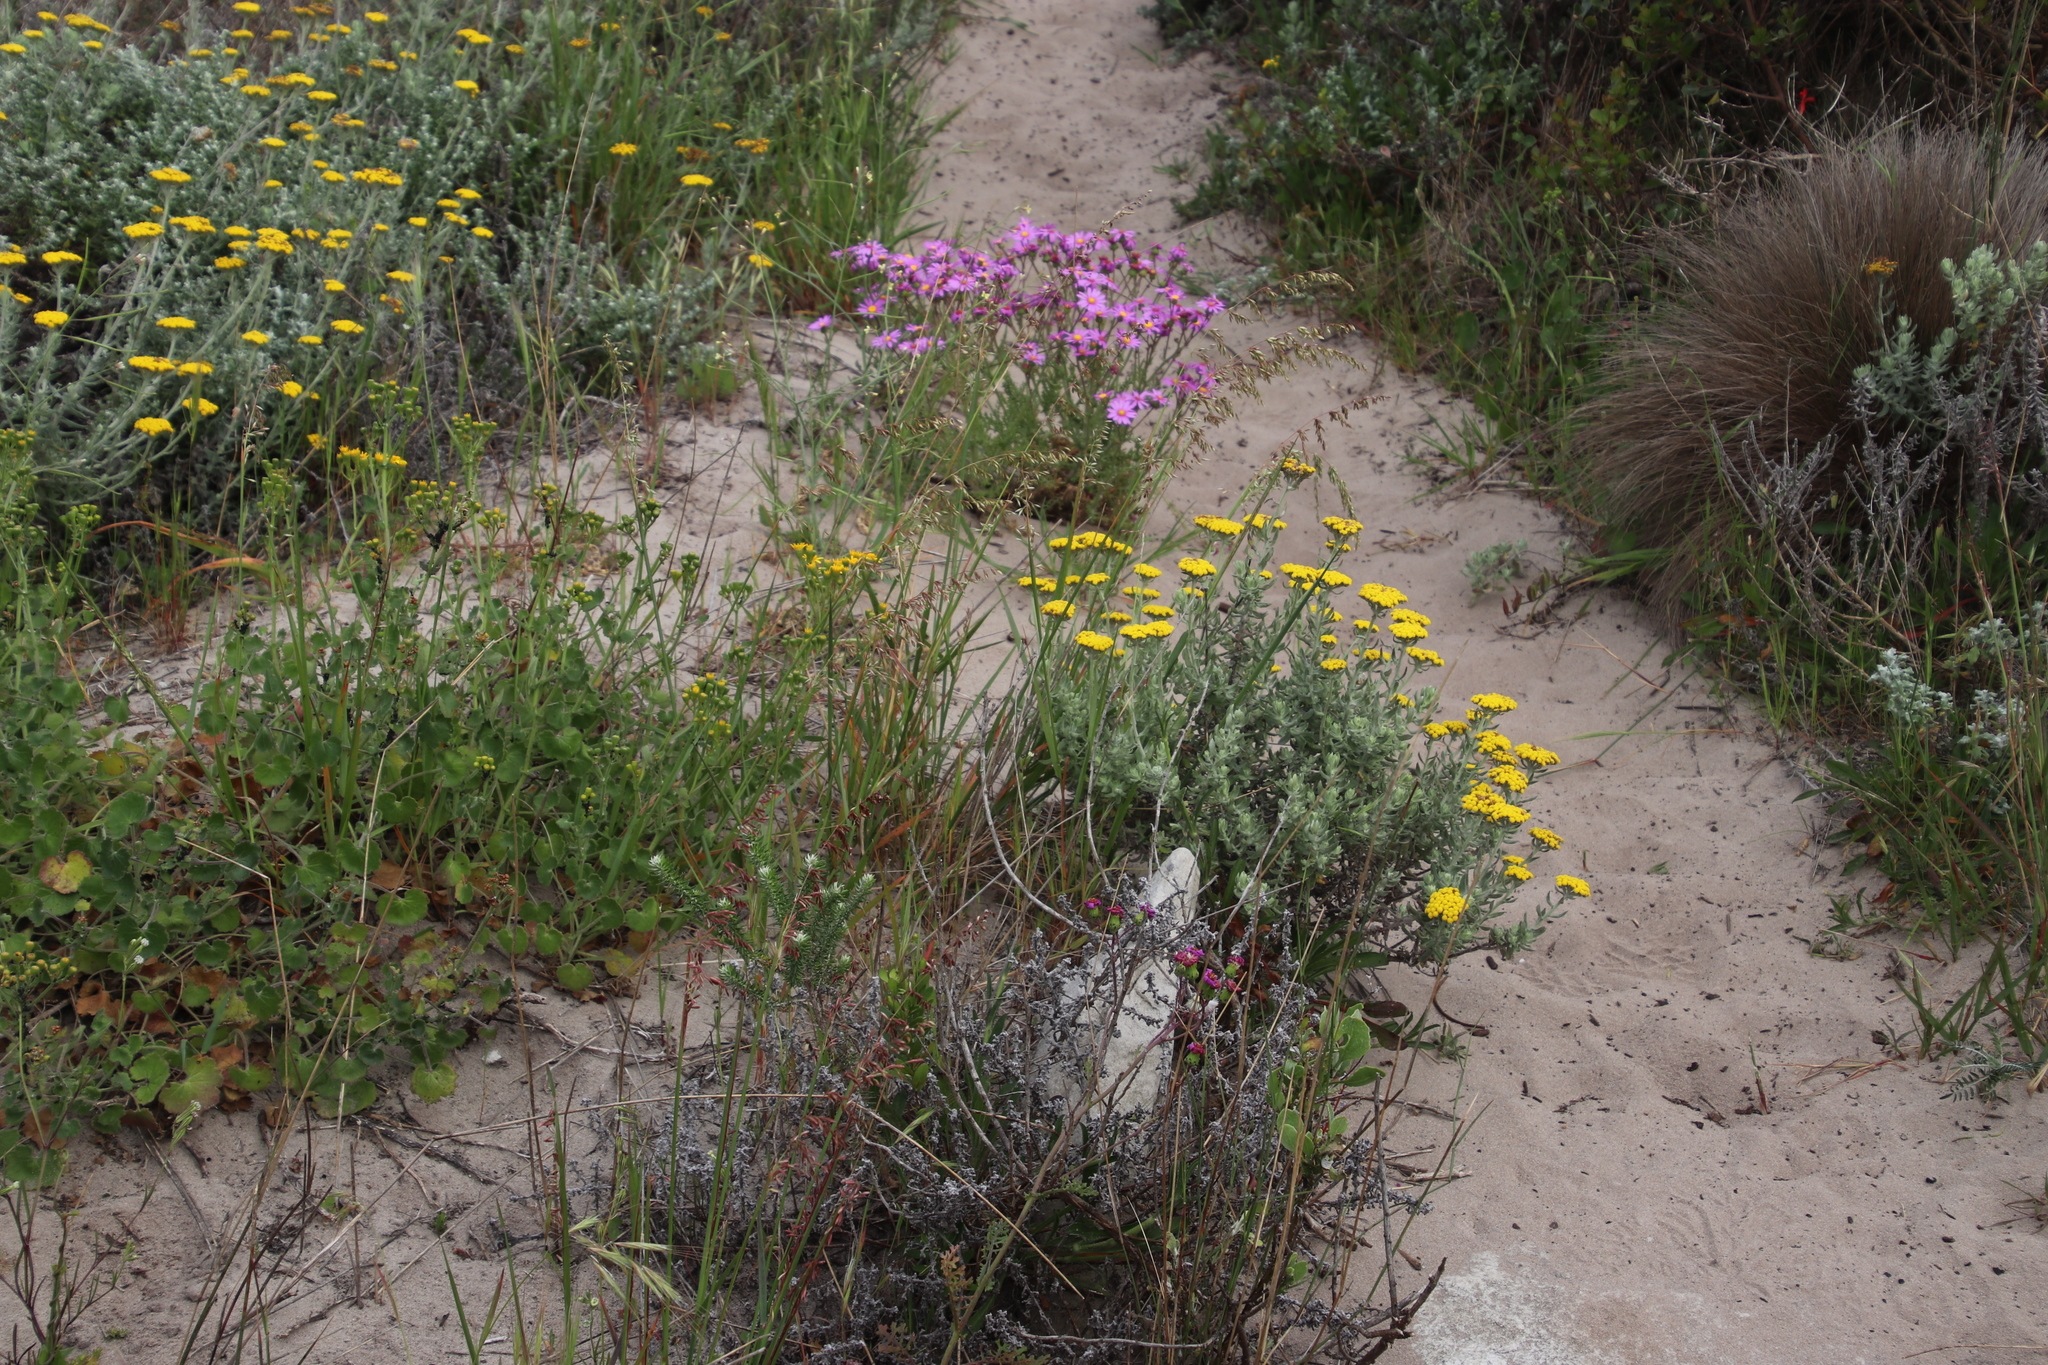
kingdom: Plantae
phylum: Tracheophyta
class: Liliopsida
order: Poales
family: Poaceae
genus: Ehrharta
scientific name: Ehrharta calycina
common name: Perennial veldtgrass
